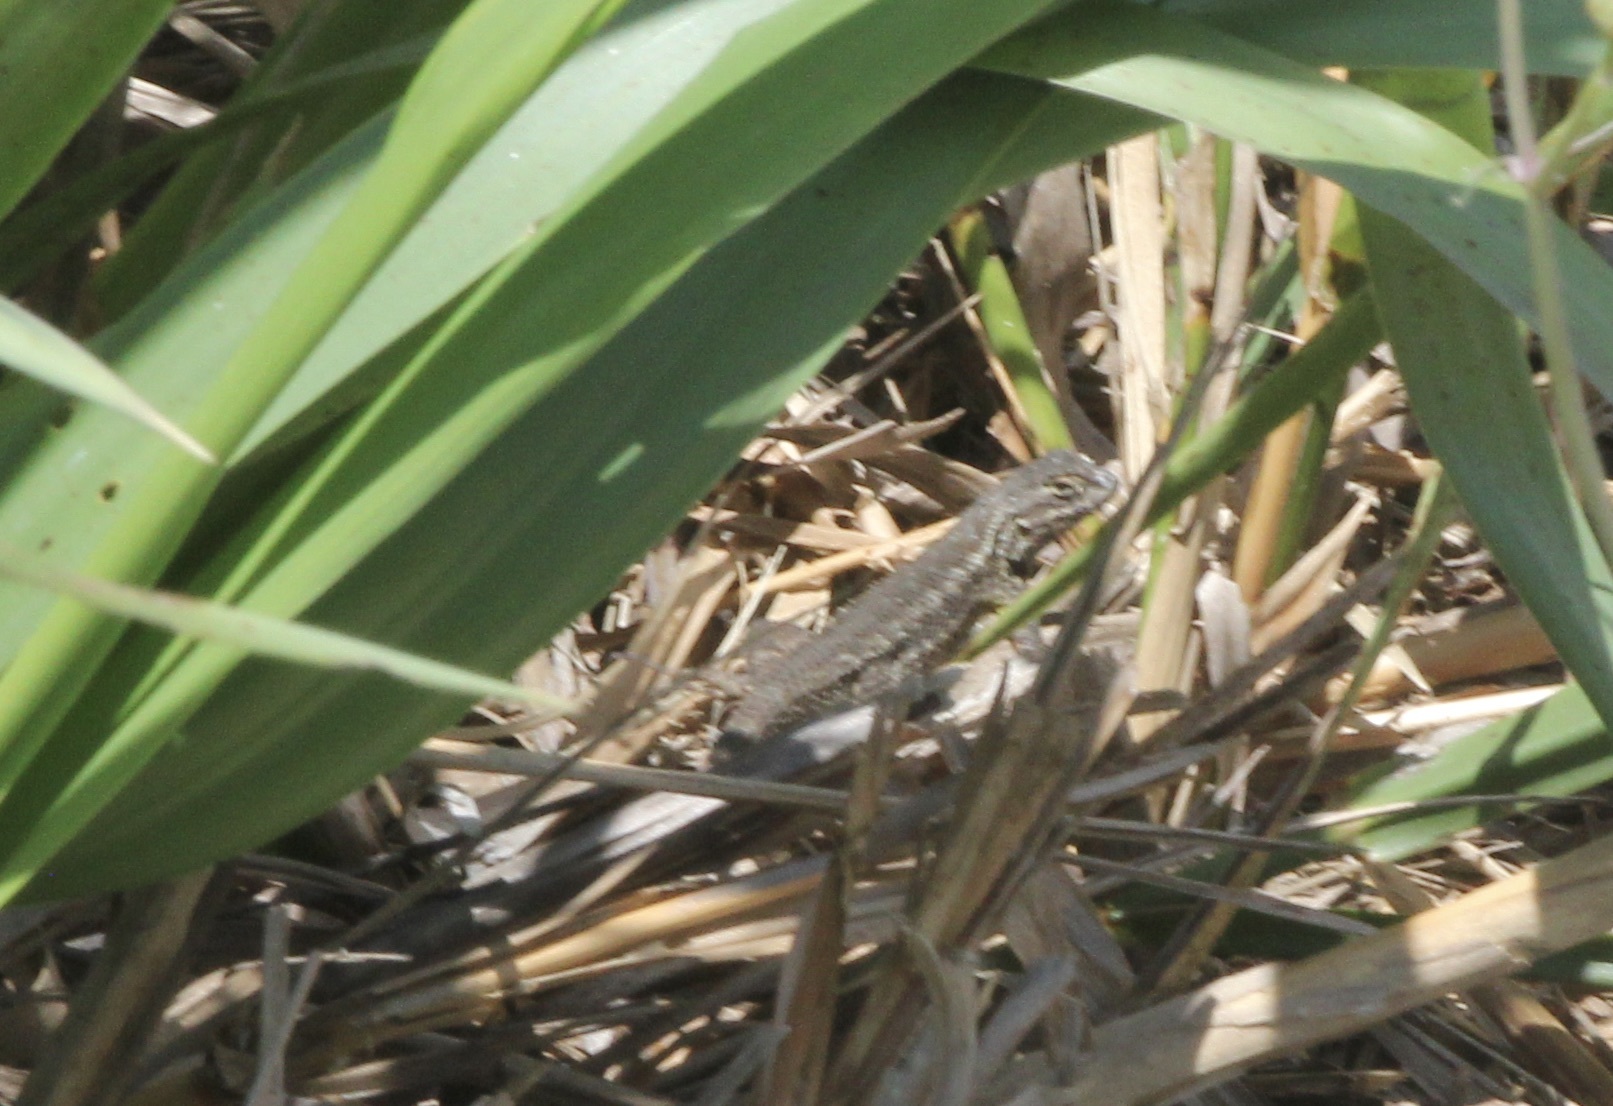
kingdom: Animalia
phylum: Chordata
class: Squamata
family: Phrynosomatidae
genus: Sceloporus
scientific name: Sceloporus occidentalis
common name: Western fence lizard
